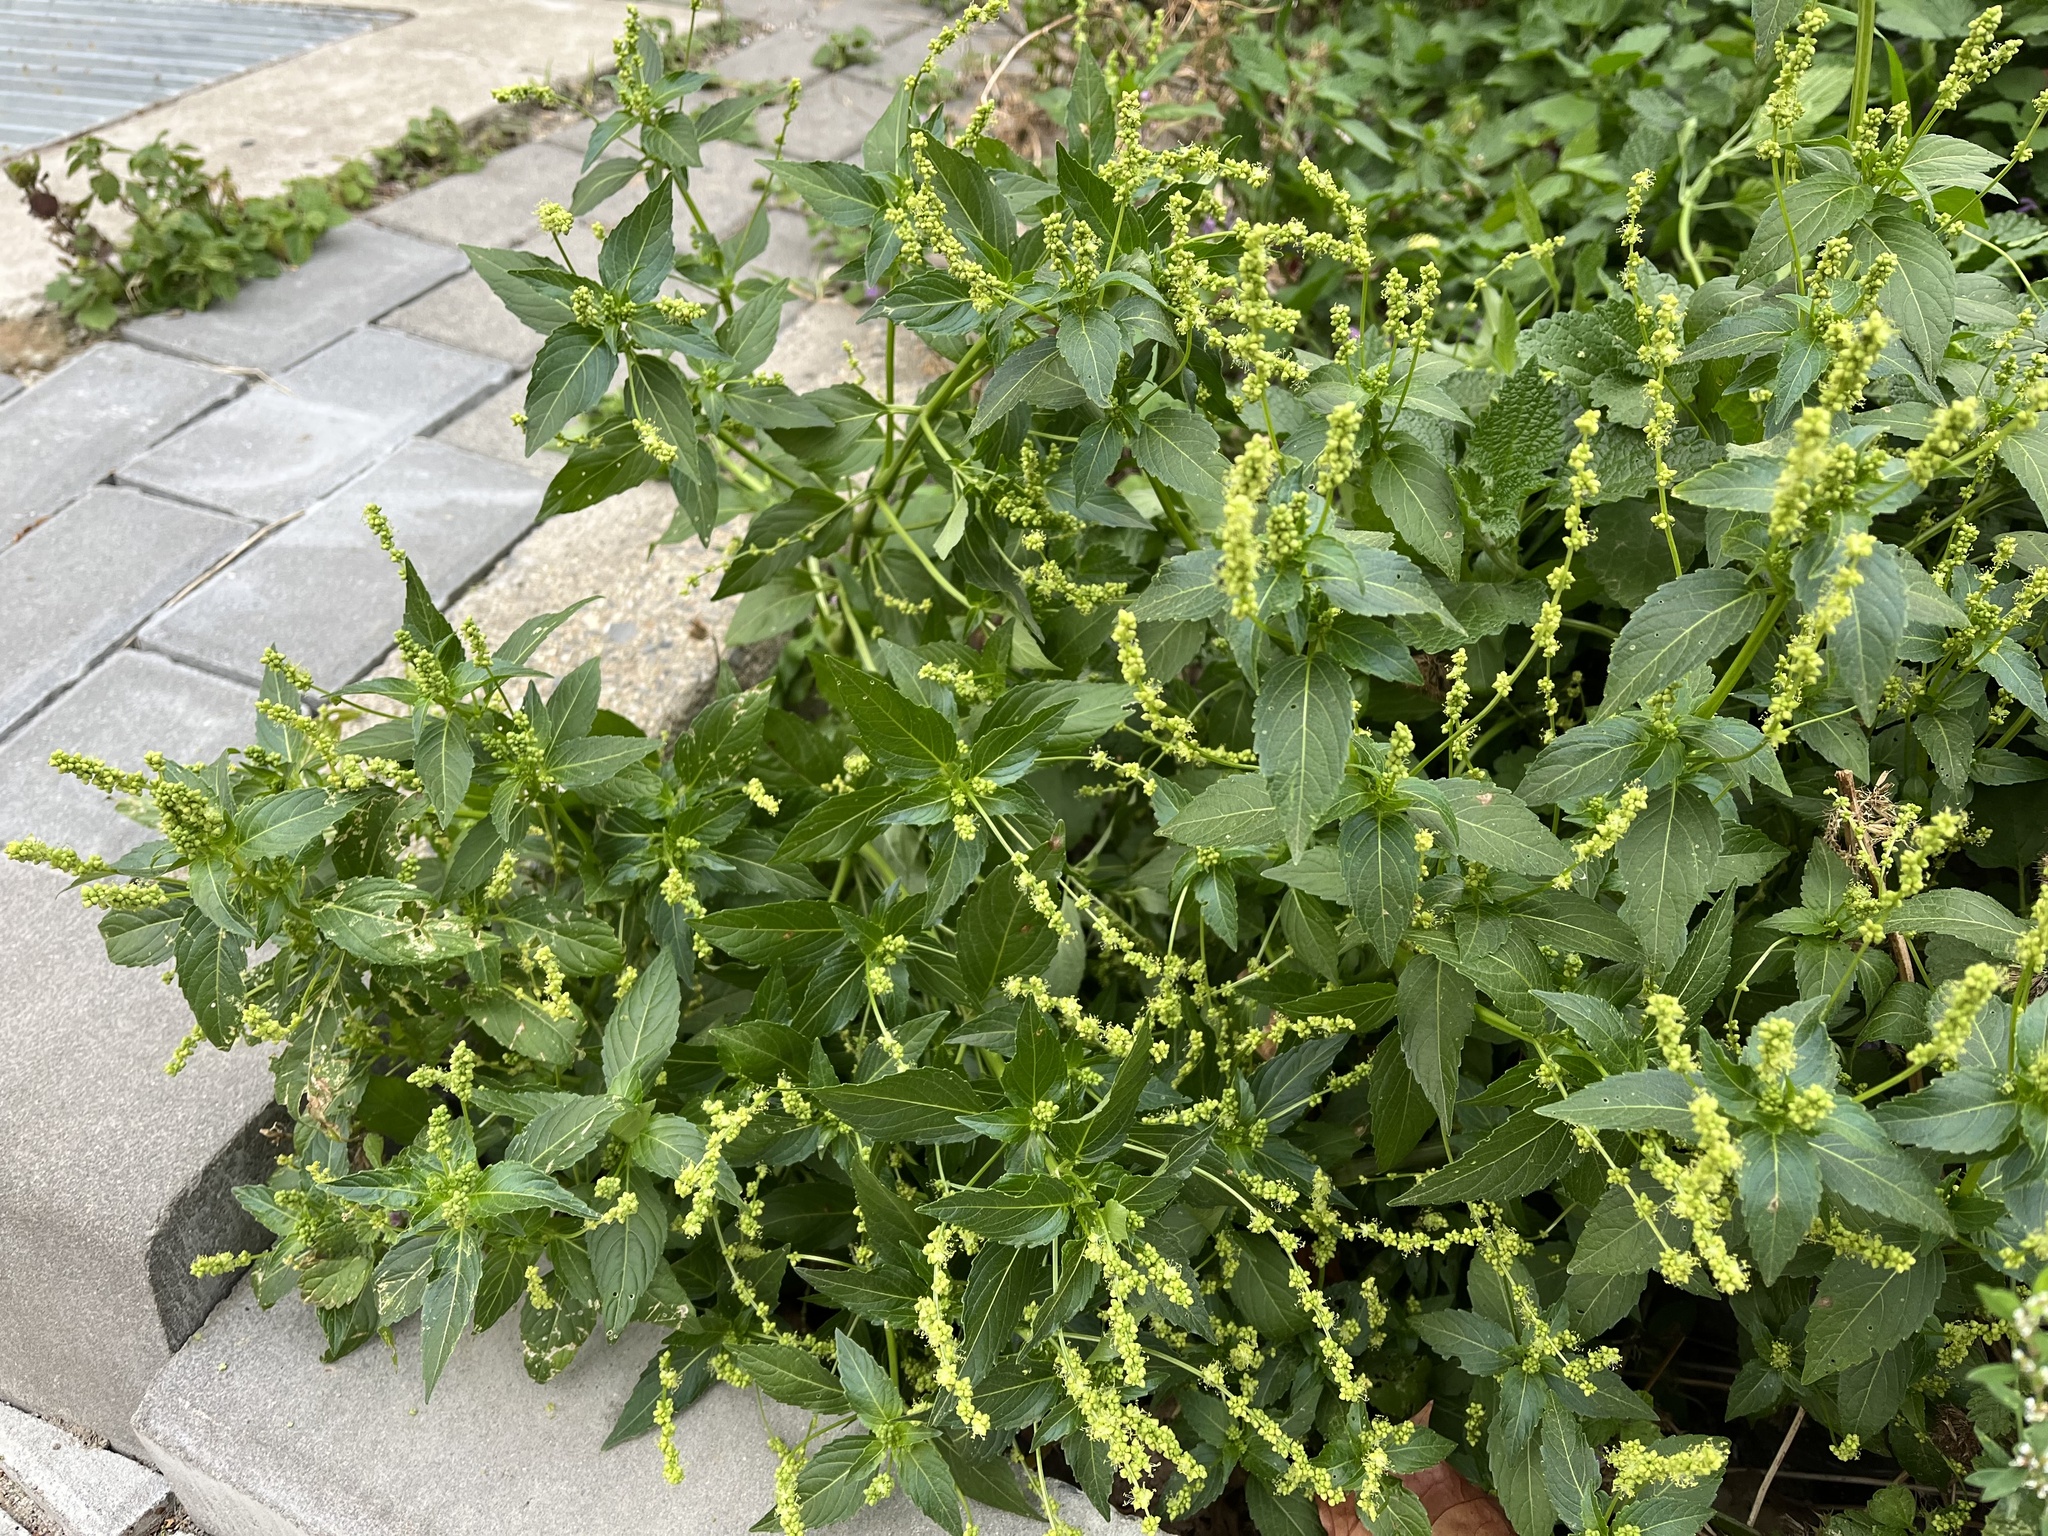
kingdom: Plantae
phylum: Tracheophyta
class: Magnoliopsida
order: Malpighiales
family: Euphorbiaceae
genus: Mercurialis
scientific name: Mercurialis annua
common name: Annual mercury
